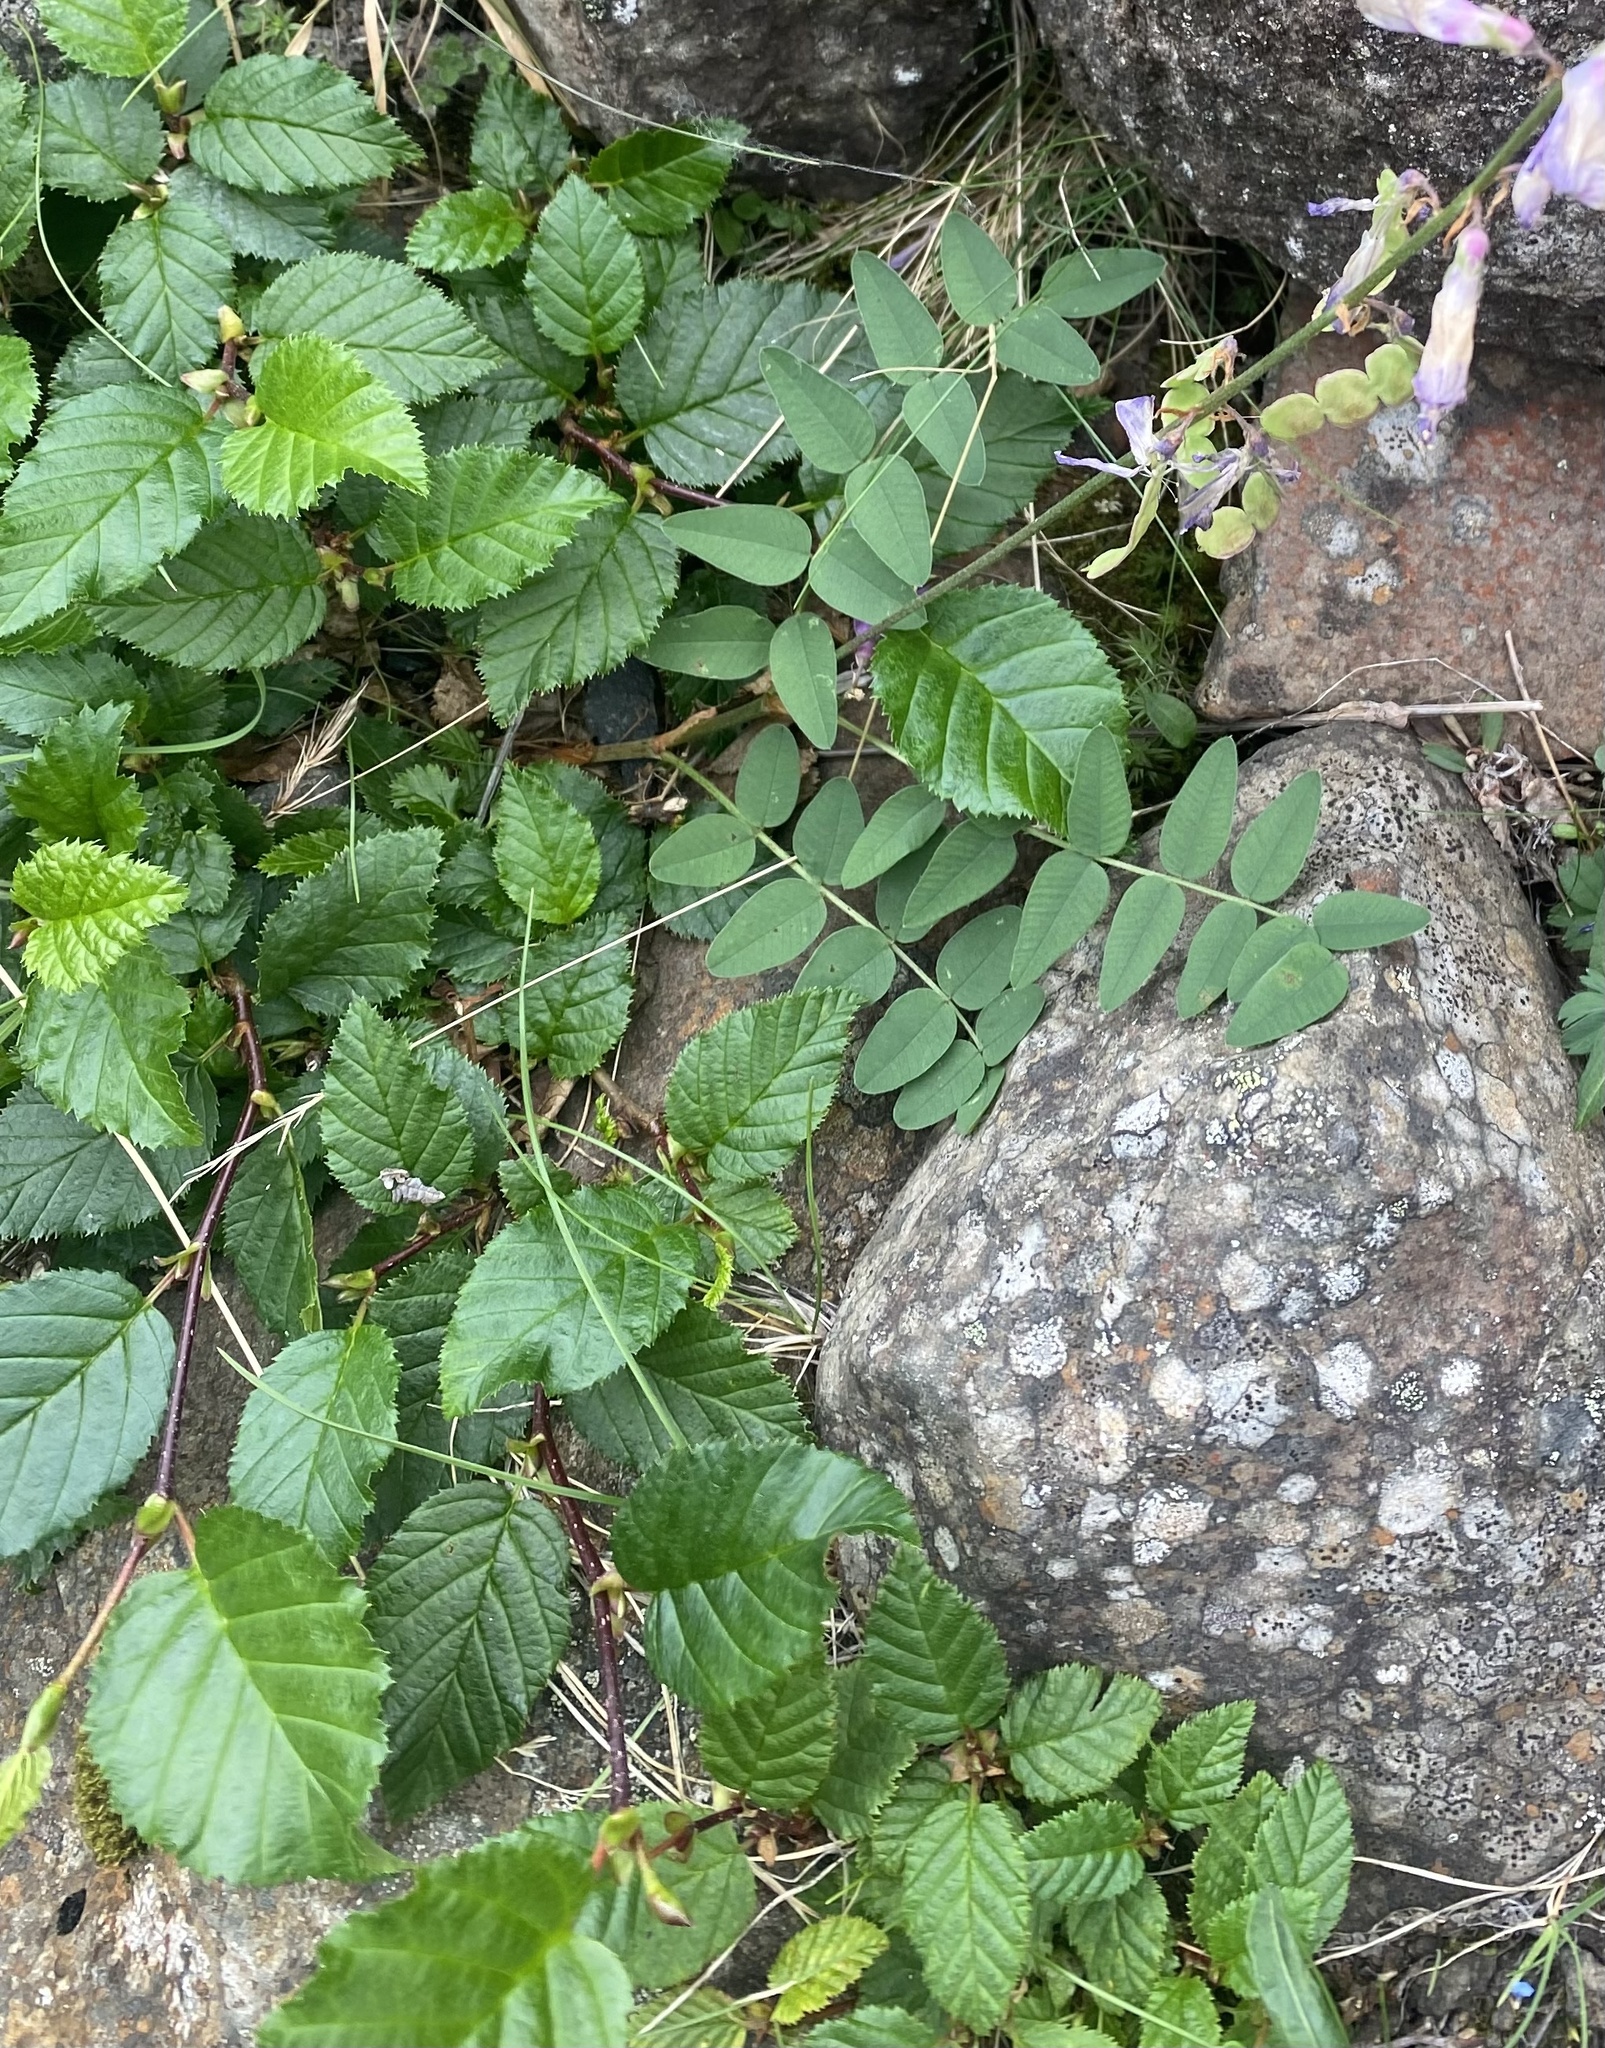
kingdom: Plantae
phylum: Tracheophyta
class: Magnoliopsida
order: Fagales
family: Betulaceae
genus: Alnus
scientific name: Alnus alnobetula
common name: Green alder
